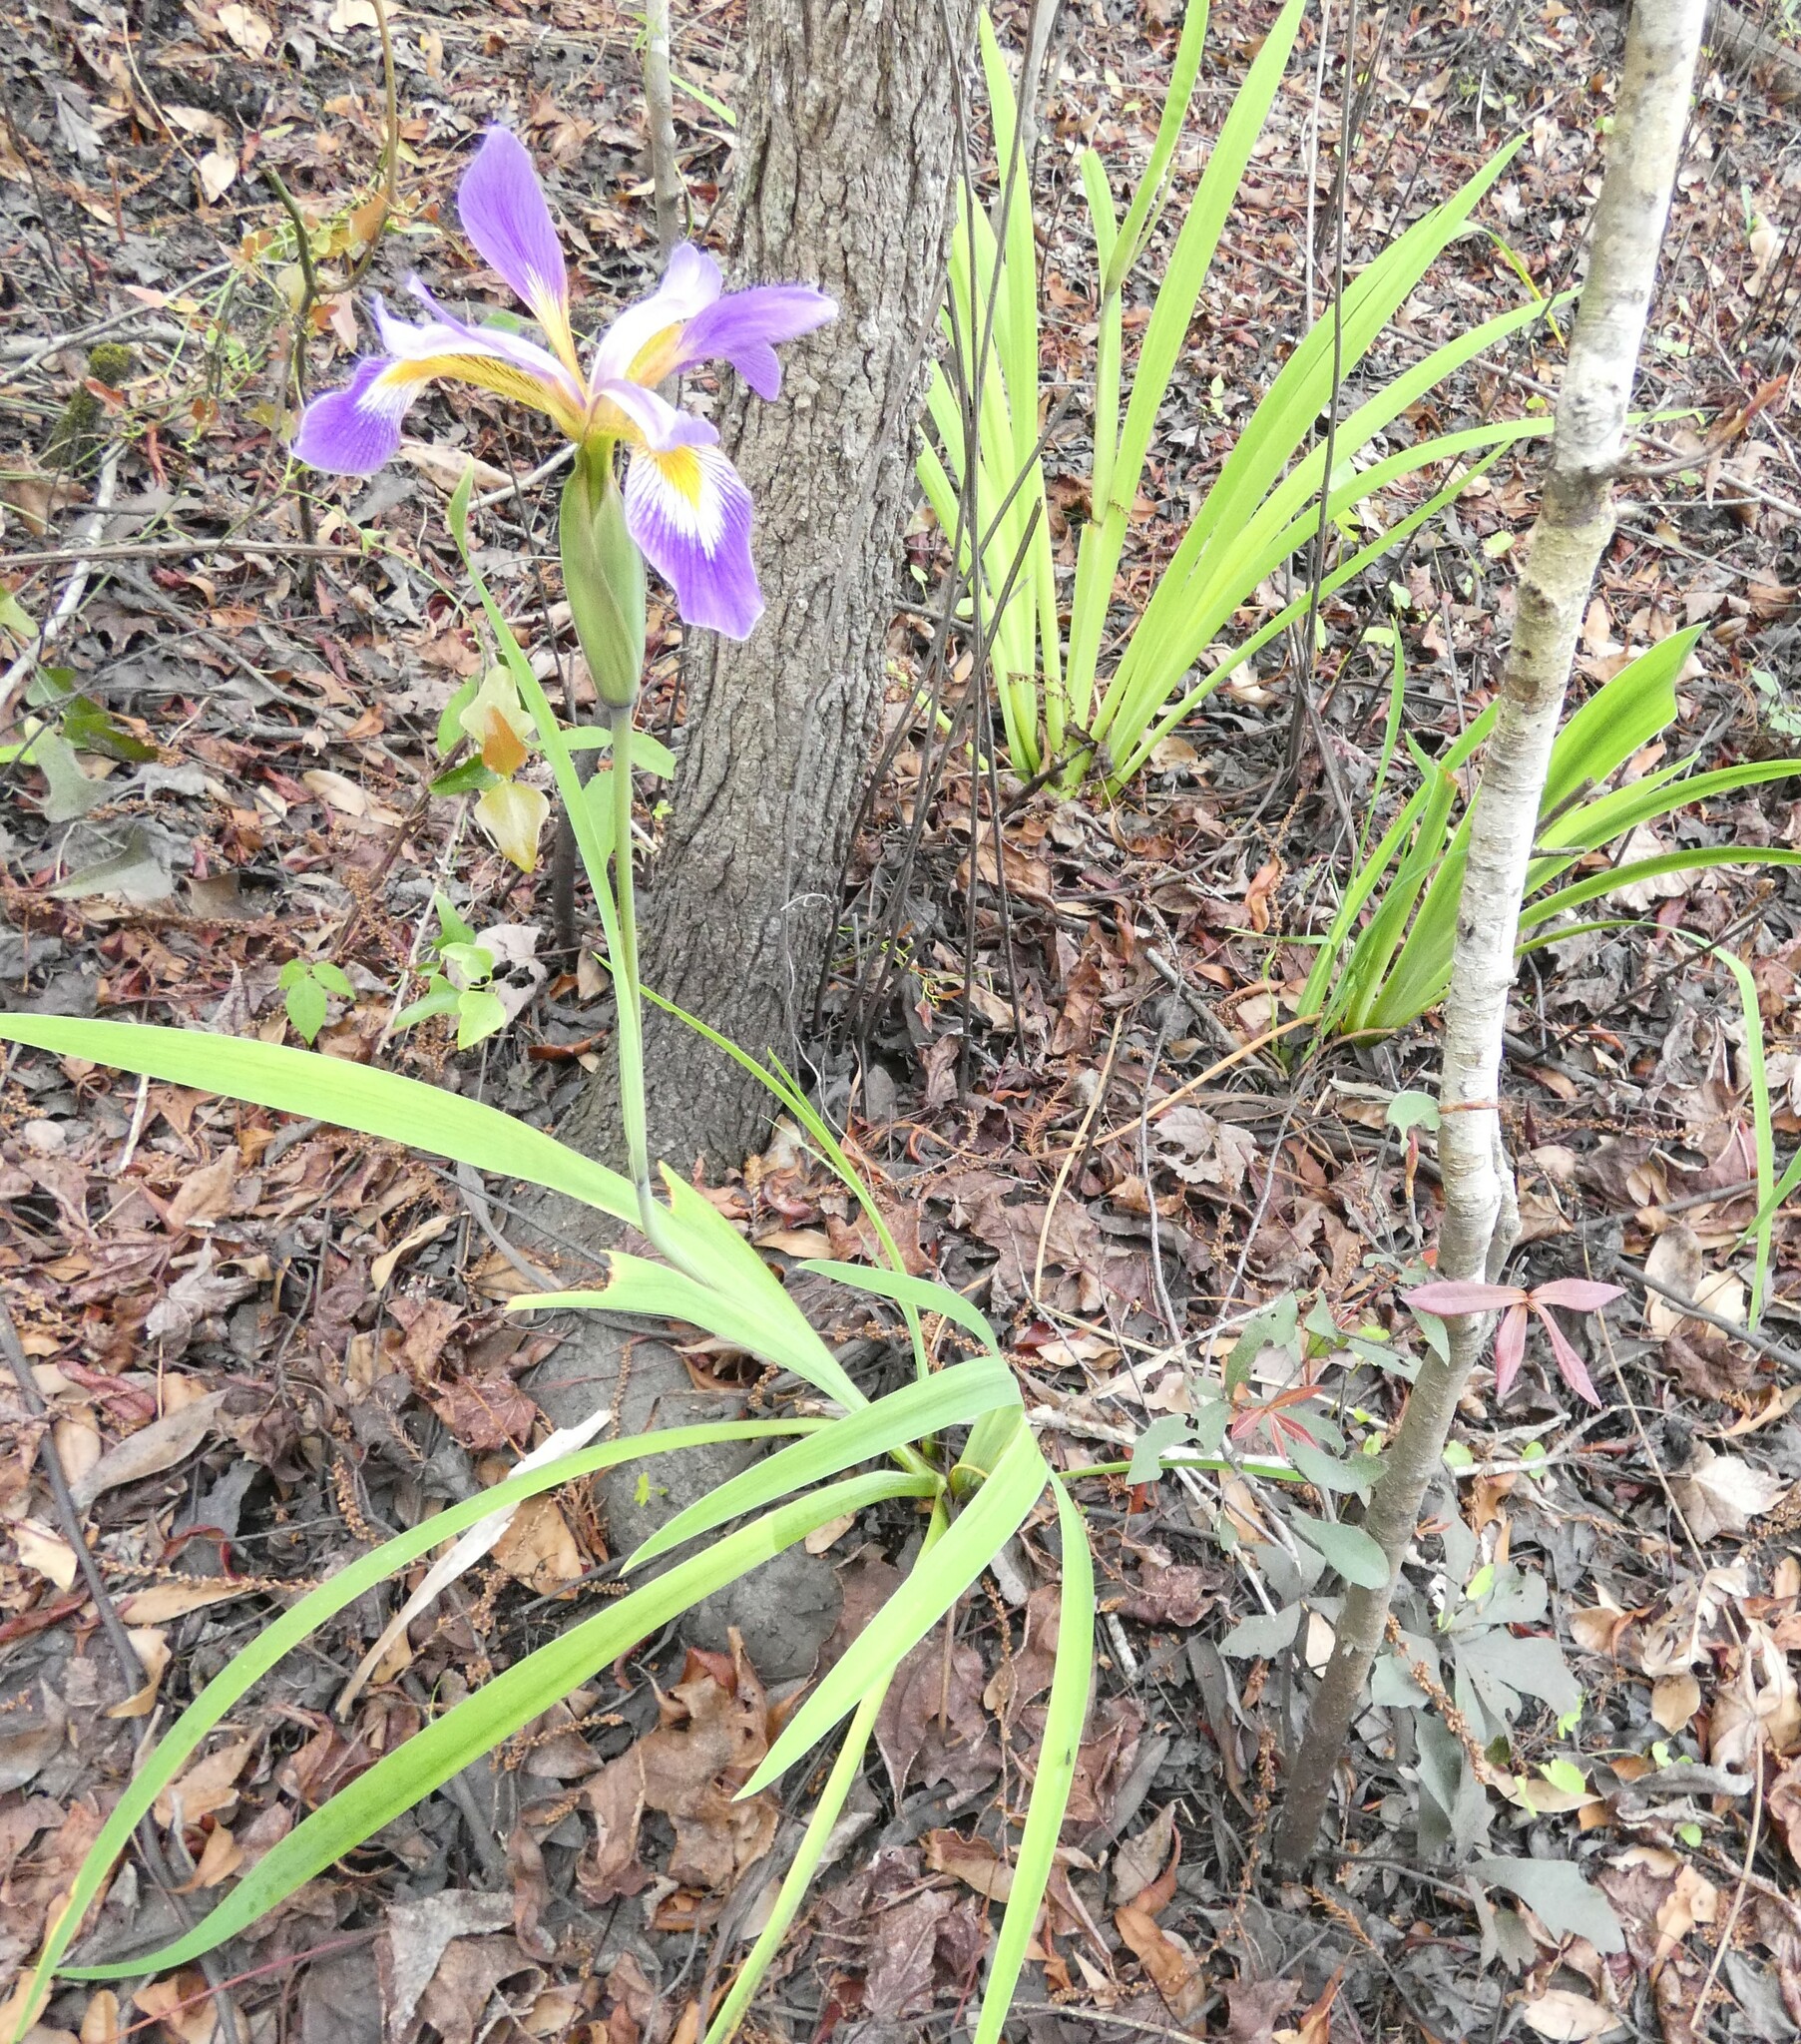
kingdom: Plantae
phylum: Tracheophyta
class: Liliopsida
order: Asparagales
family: Iridaceae
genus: Iris
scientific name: Iris virginica
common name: Southern blue flag
